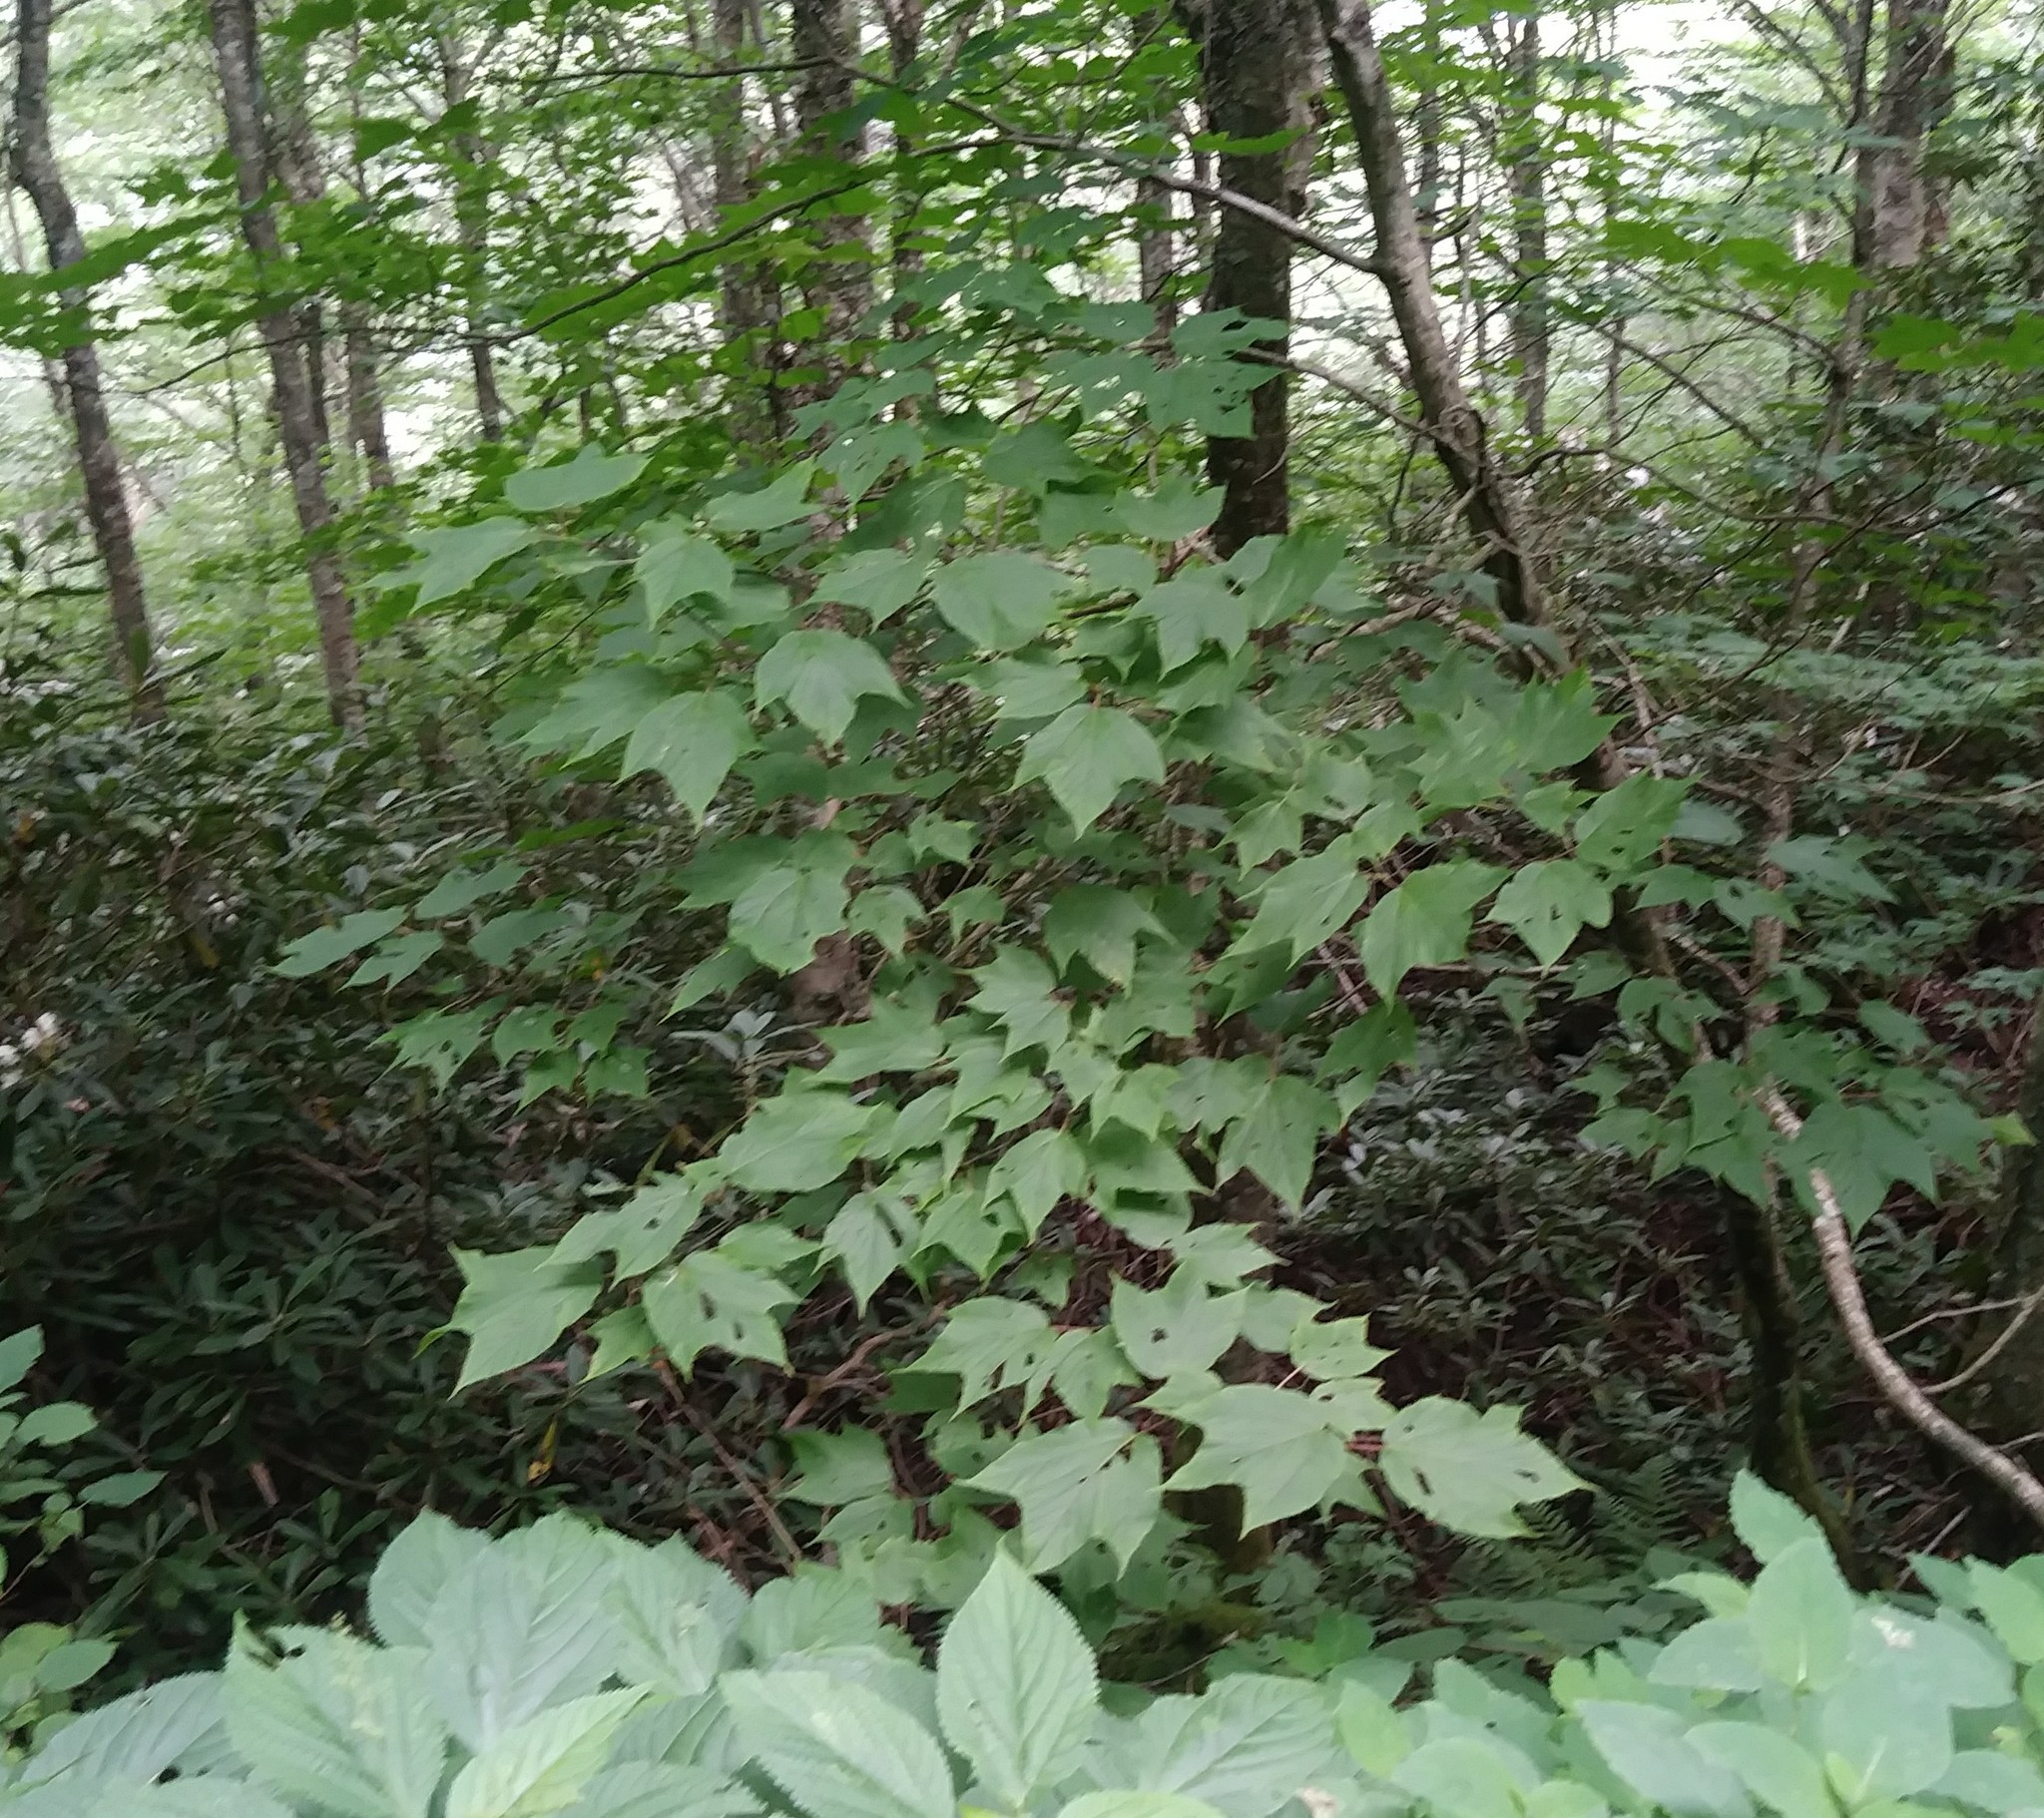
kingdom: Plantae
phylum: Tracheophyta
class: Magnoliopsida
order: Sapindales
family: Sapindaceae
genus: Acer
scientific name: Acer pensylvanicum
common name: Moosewood
